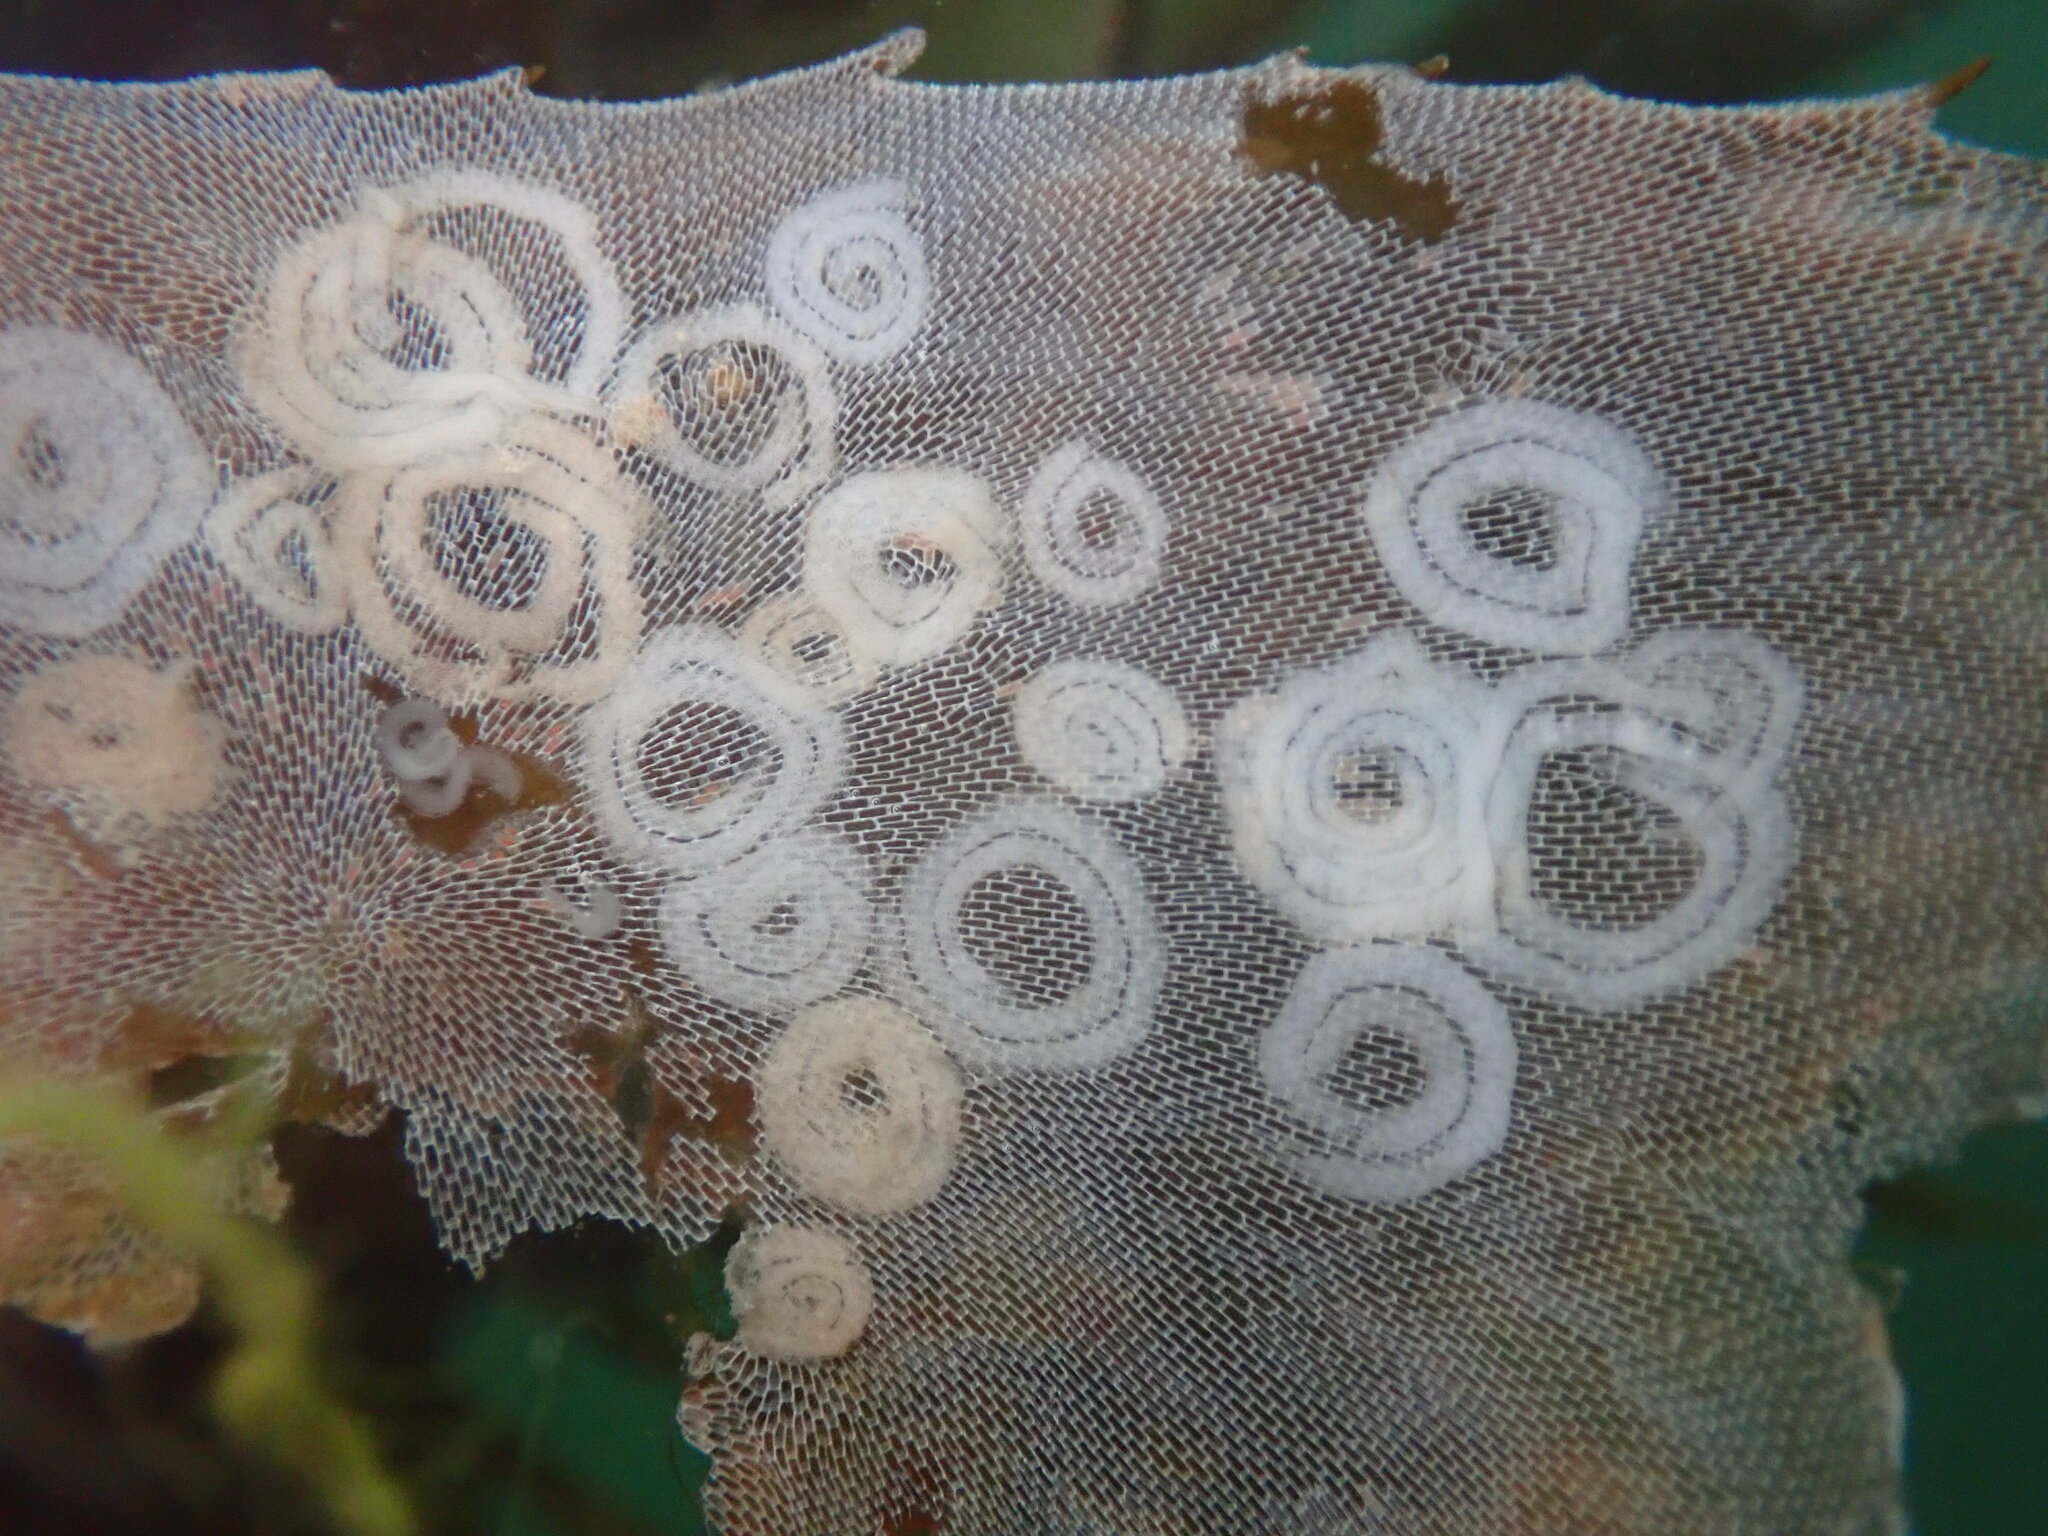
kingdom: Animalia
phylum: Mollusca
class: Gastropoda
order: Nudibranchia
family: Corambidae
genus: Corambe
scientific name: Corambe pacifica
